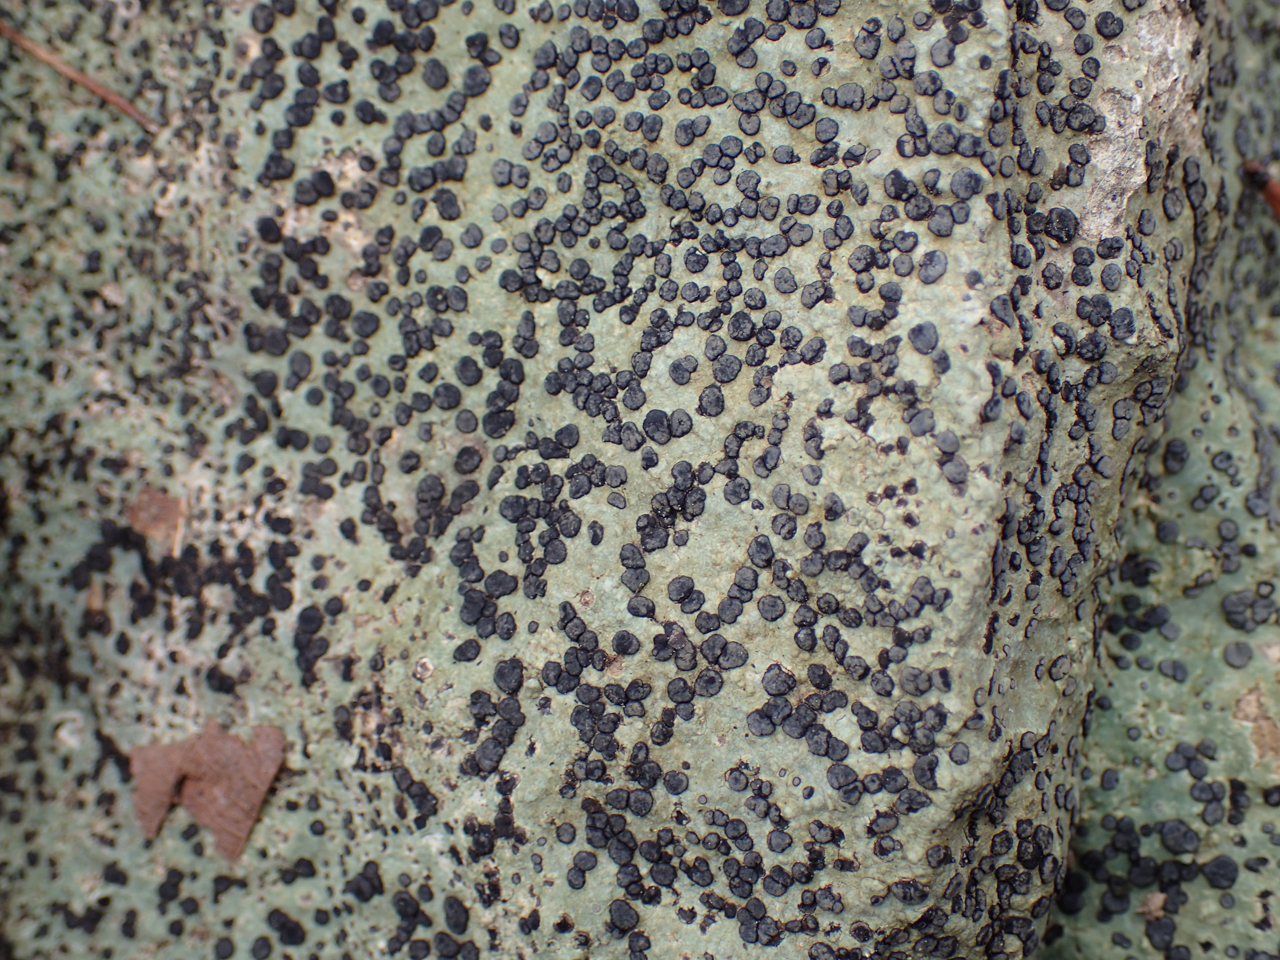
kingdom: Fungi
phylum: Ascomycota
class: Lecanoromycetes
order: Lecideales
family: Lecideaceae
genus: Porpidia
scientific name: Porpidia albocaerulescens
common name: Smokey-eyed boulder lichen
